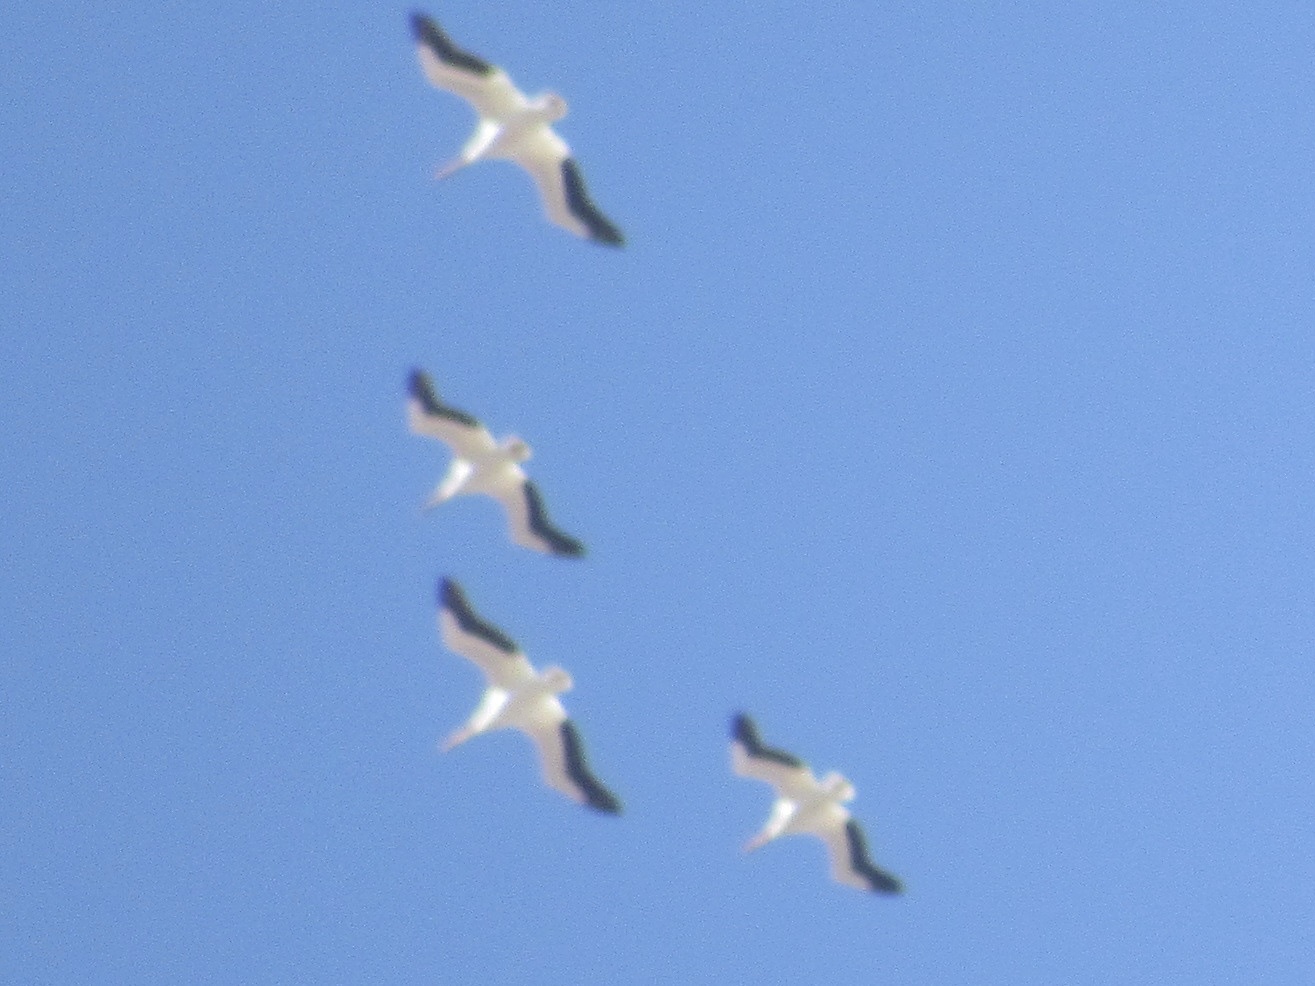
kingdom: Animalia
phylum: Chordata
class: Aves
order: Pelecaniformes
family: Pelecanidae
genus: Pelecanus
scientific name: Pelecanus erythrorhynchos
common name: American white pelican
